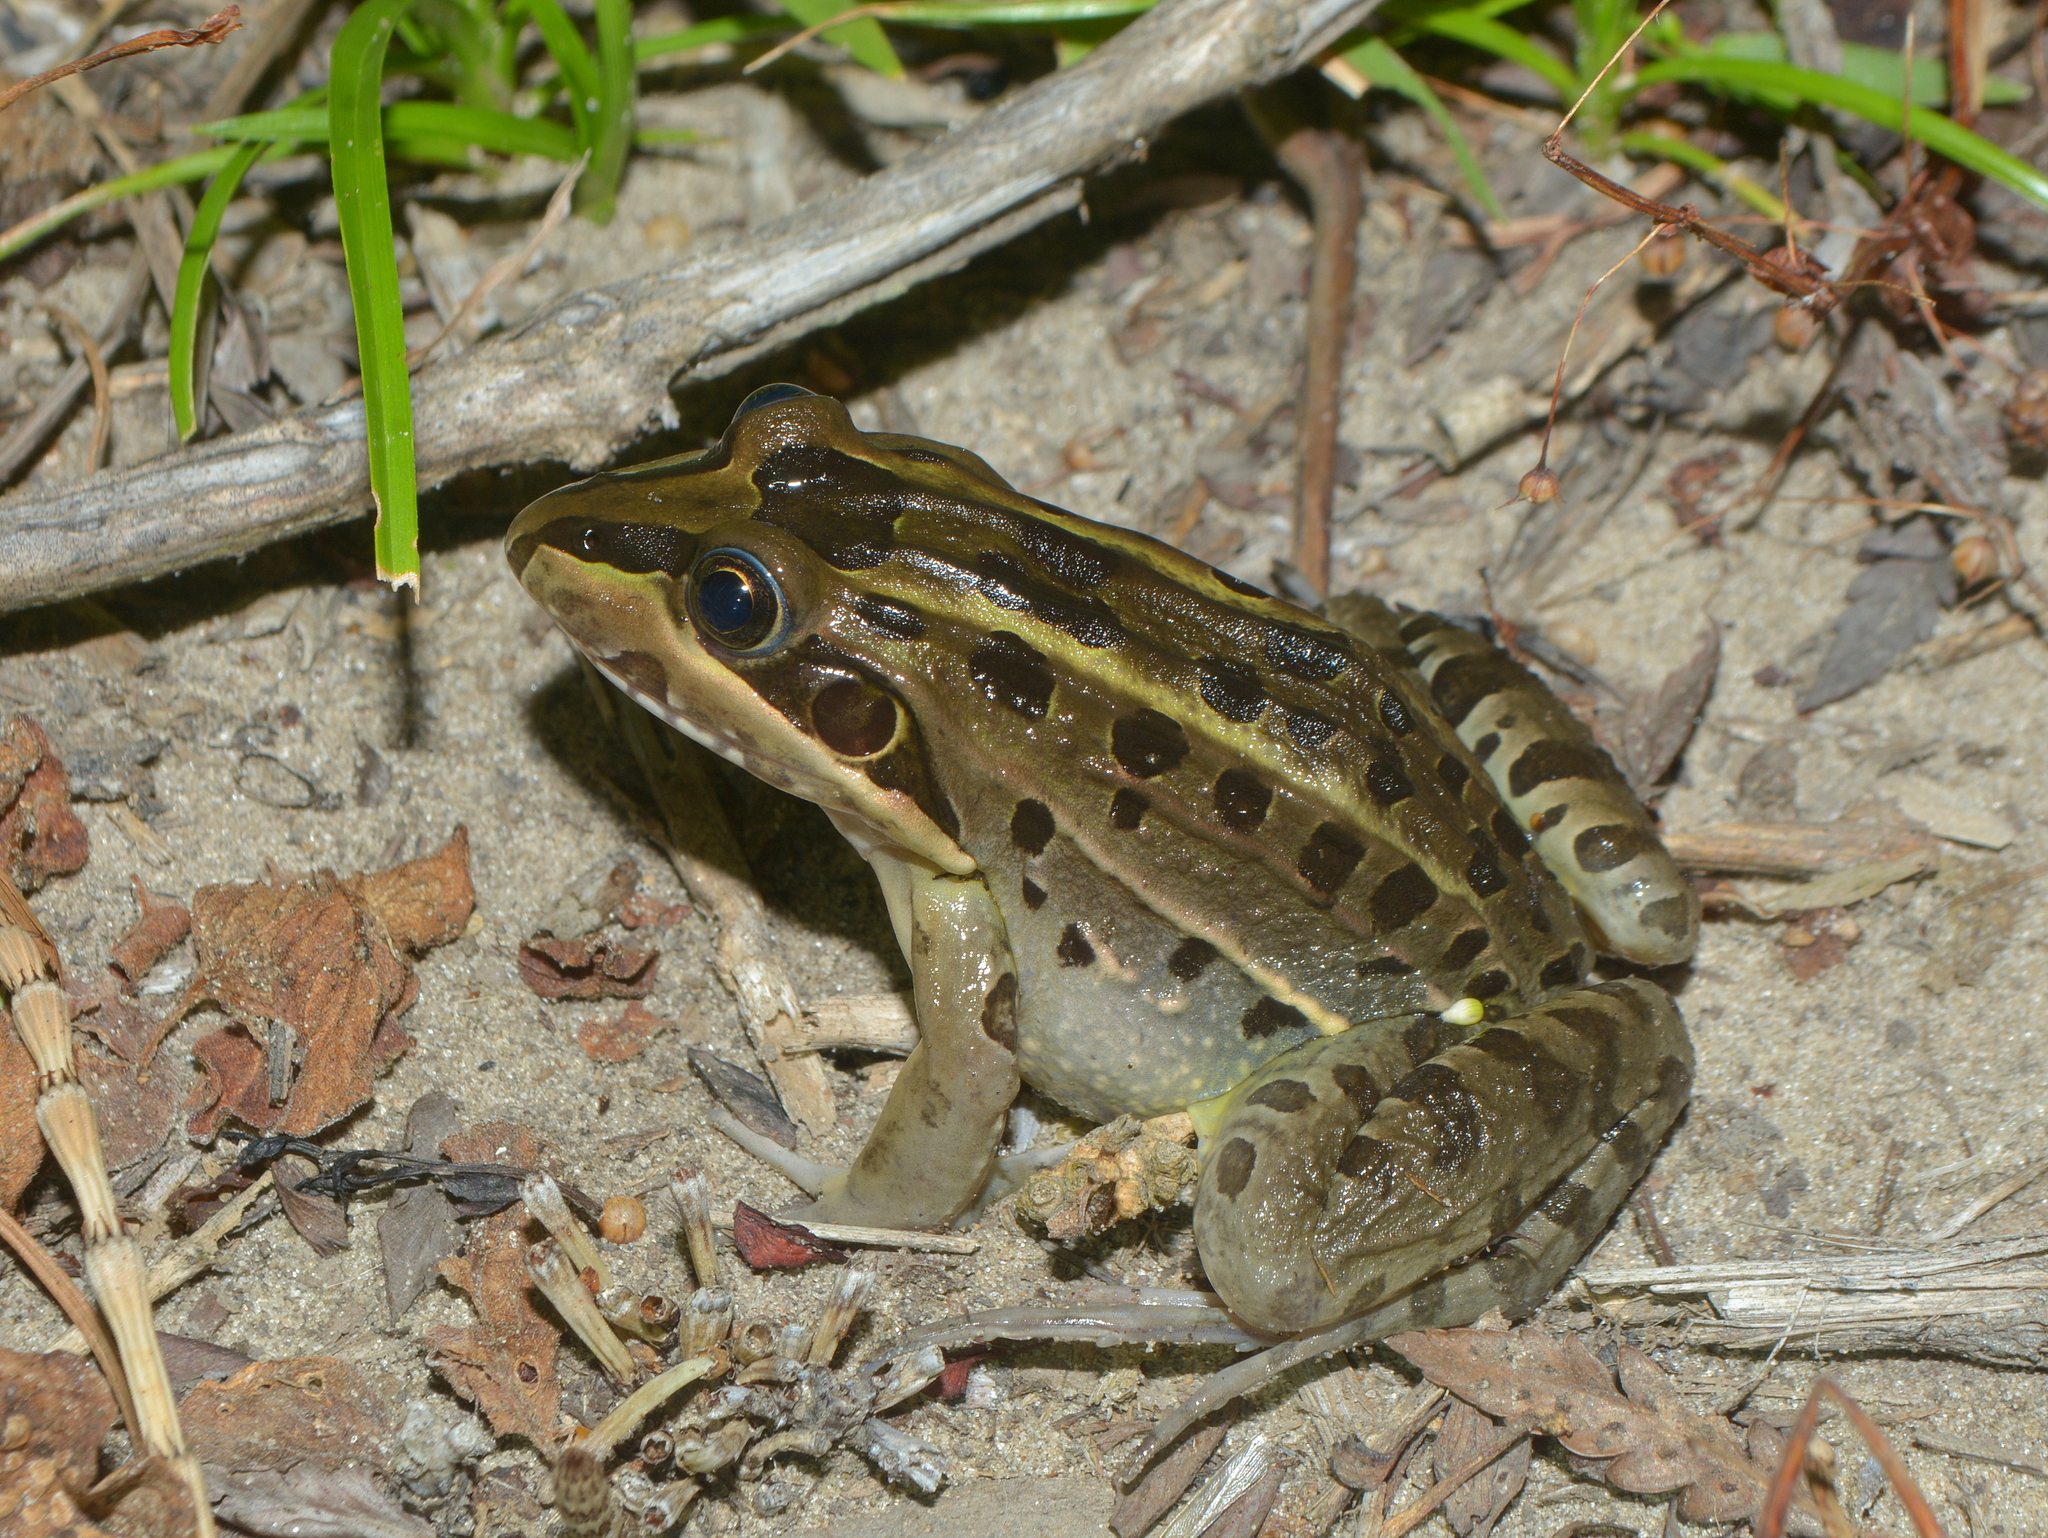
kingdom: Animalia
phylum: Chordata
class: Amphibia
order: Anura
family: Leptodactylidae
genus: Leptodactylus
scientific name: Leptodactylus luctator
